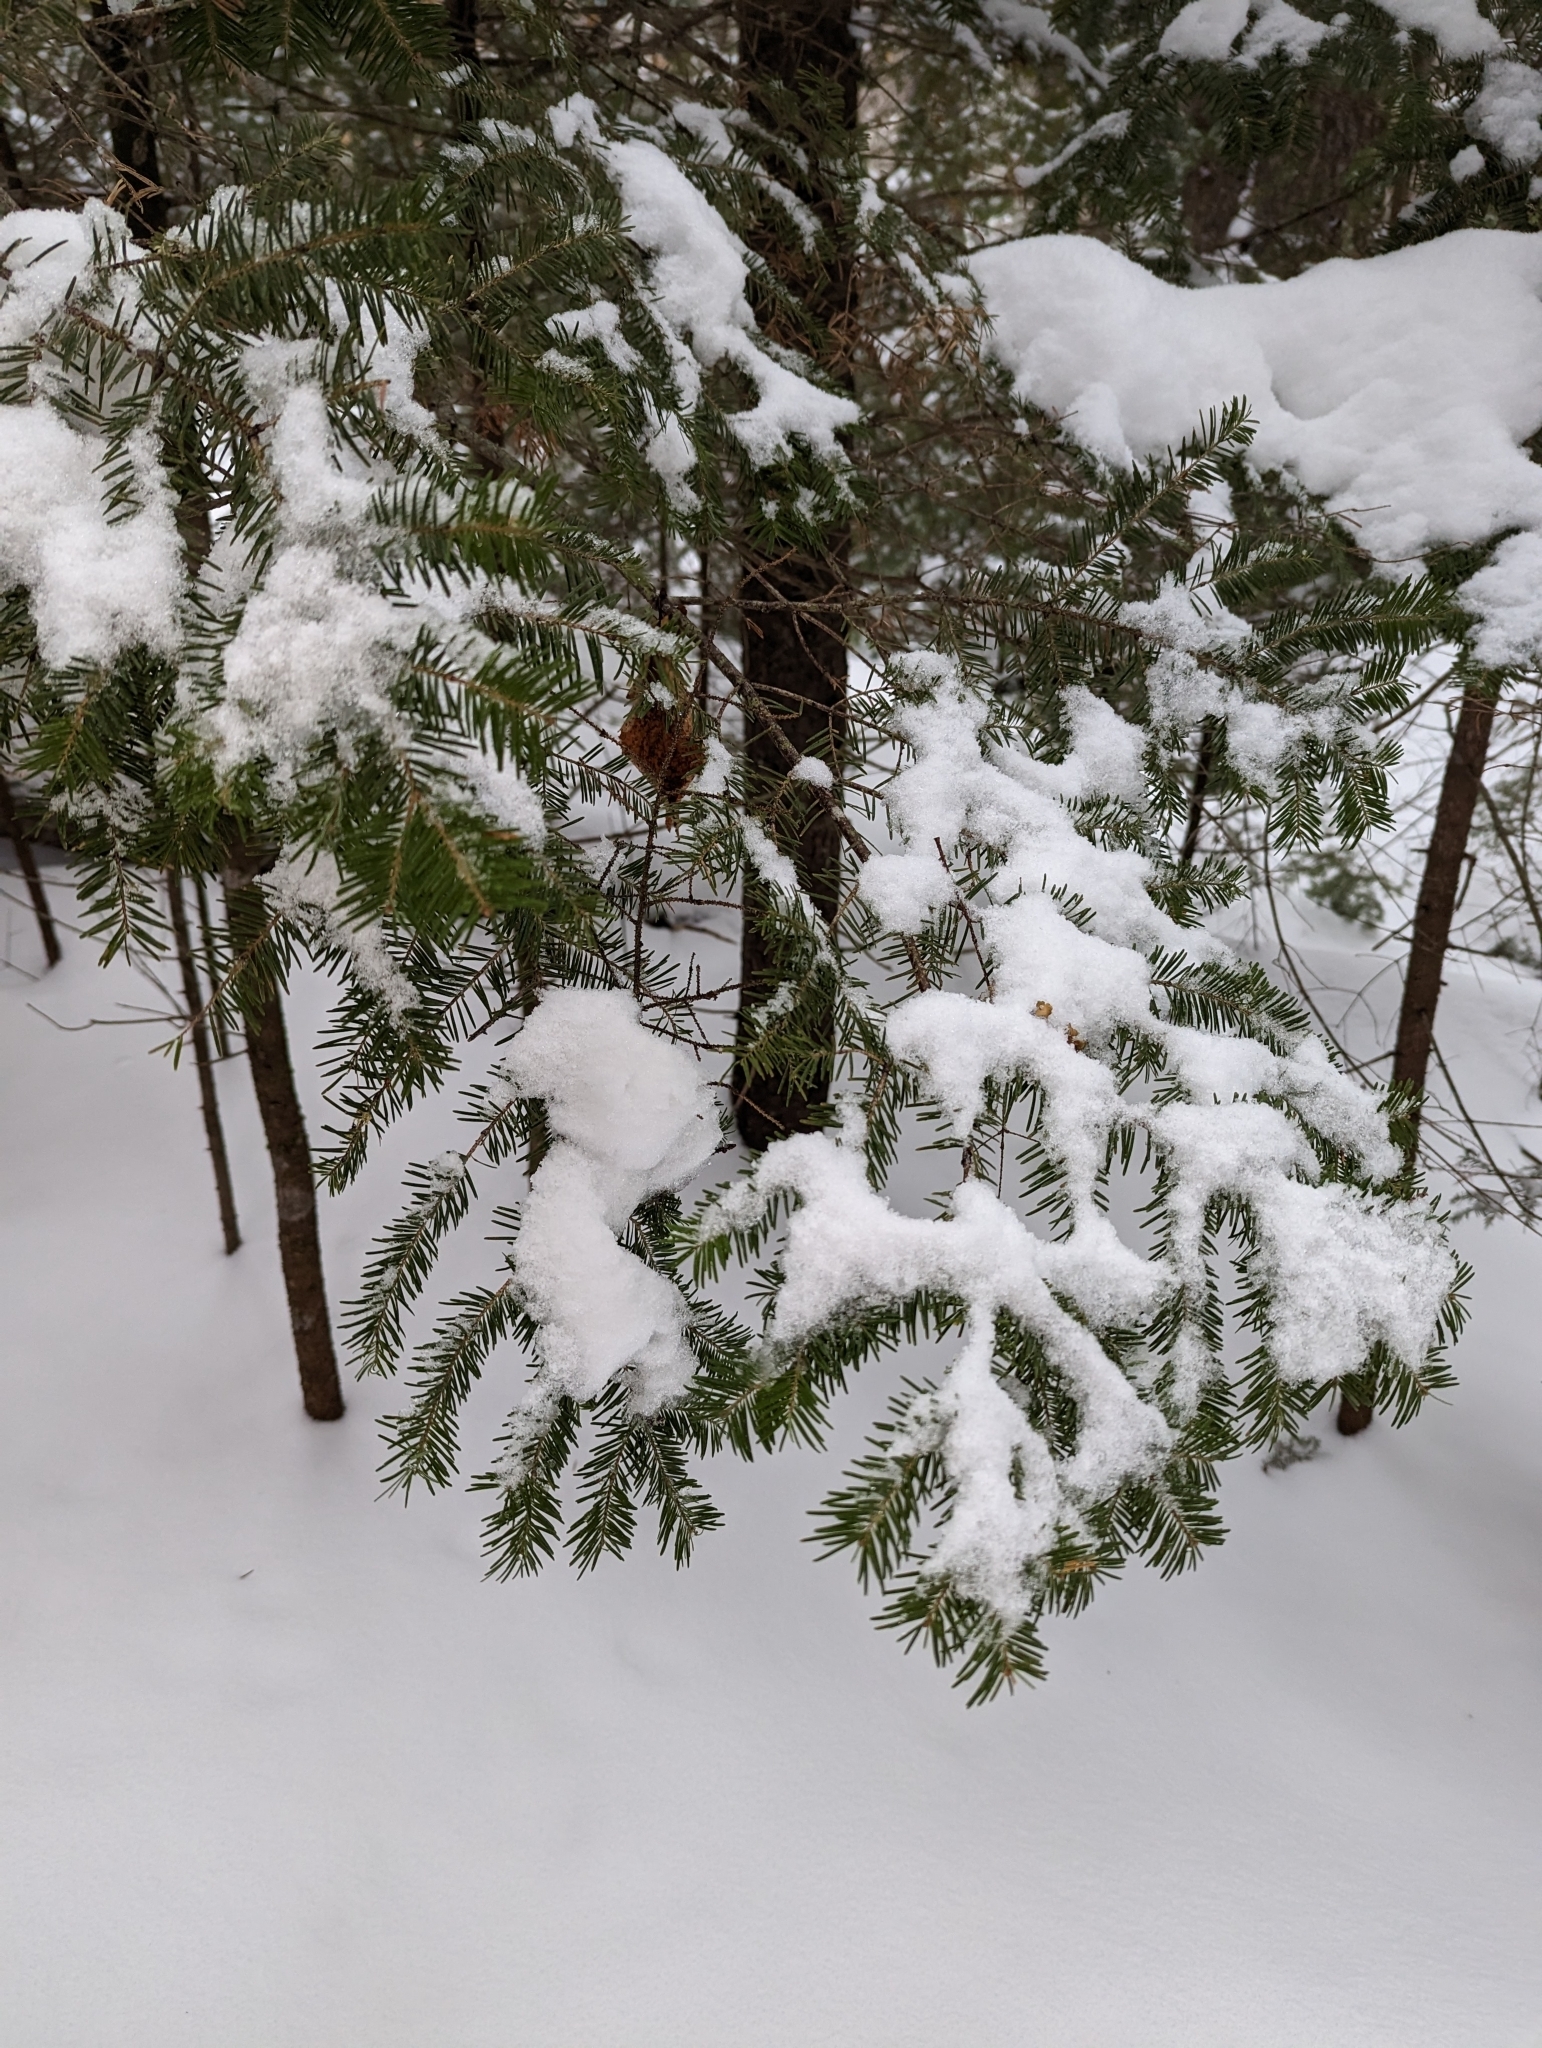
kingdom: Plantae
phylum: Tracheophyta
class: Pinopsida
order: Pinales
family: Pinaceae
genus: Abies
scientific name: Abies balsamea
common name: Balsam fir
